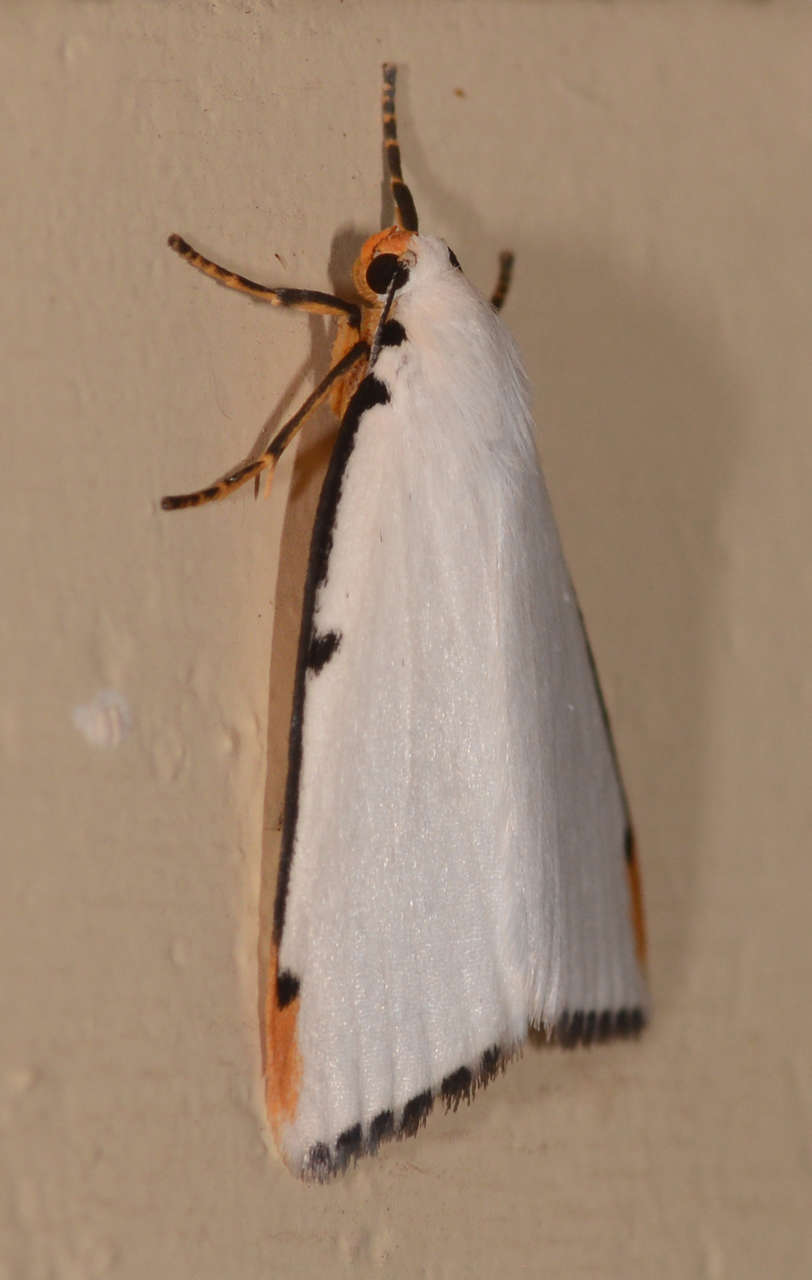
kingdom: Animalia
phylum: Arthropoda
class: Insecta
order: Lepidoptera
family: Erebidae
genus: Termessa
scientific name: Termessa nivosa
